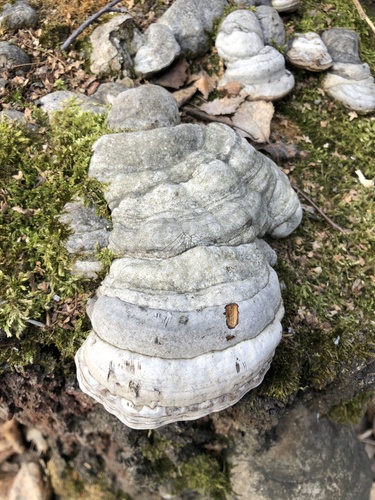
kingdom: Fungi
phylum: Basidiomycota
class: Agaricomycetes
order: Polyporales
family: Polyporaceae
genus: Fomes
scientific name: Fomes fomentarius
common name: Hoof fungus
